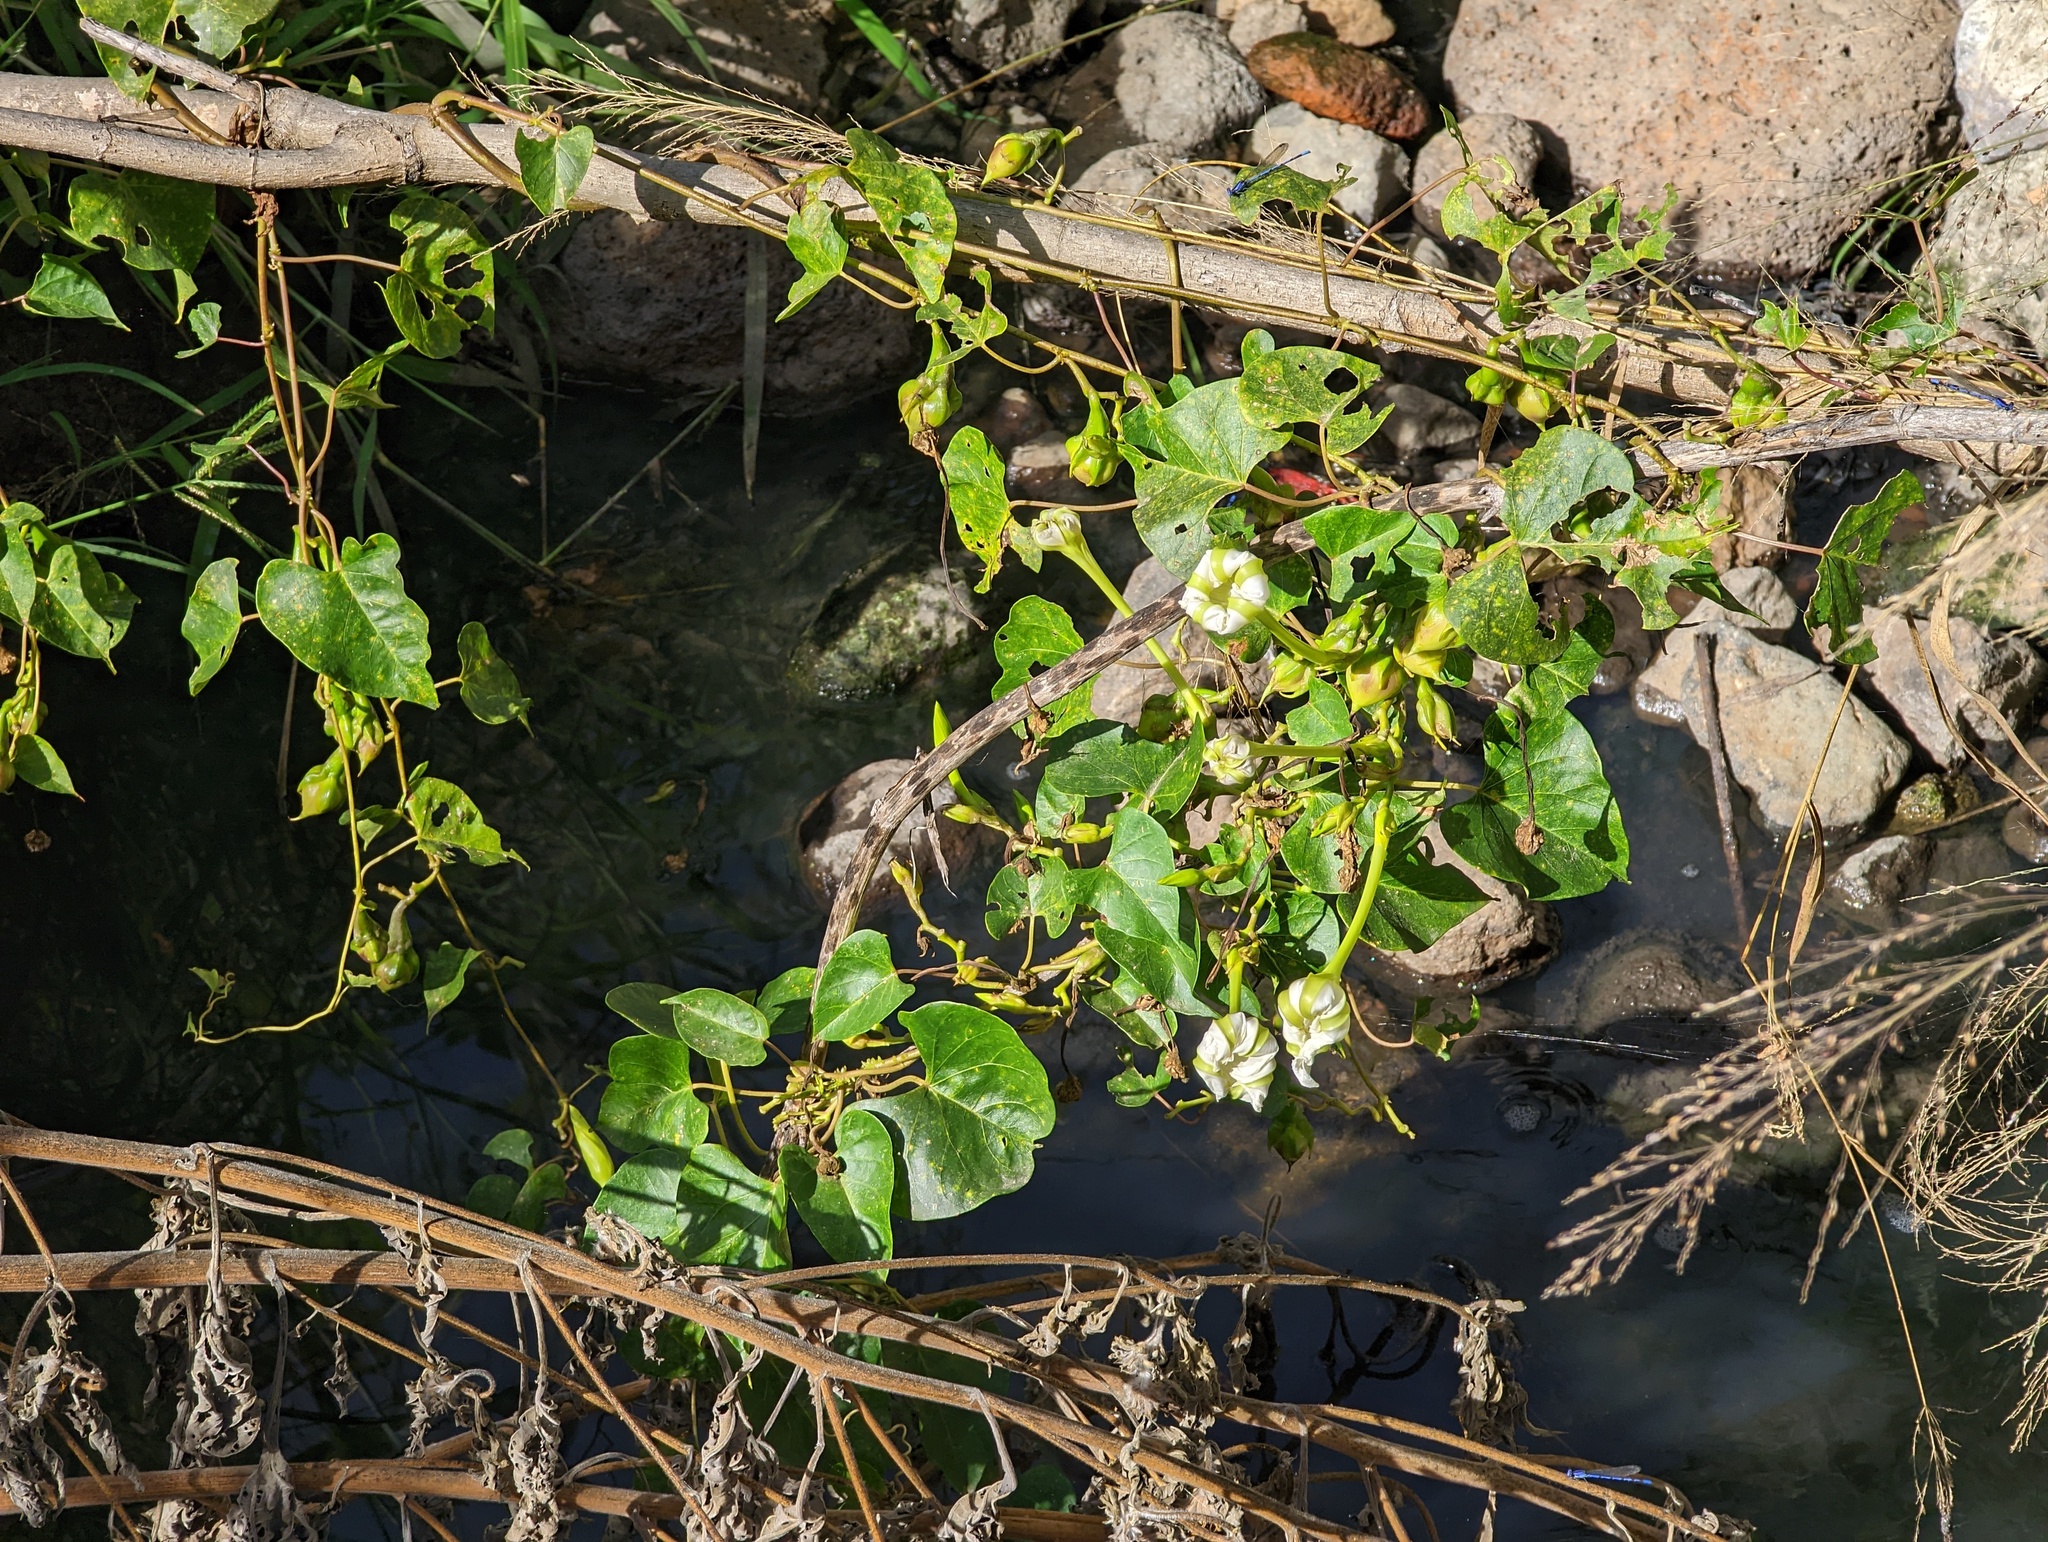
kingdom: Plantae
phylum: Tracheophyta
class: Magnoliopsida
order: Solanales
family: Convolvulaceae
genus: Ipomoea
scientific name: Ipomoea alba
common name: Moonflower
